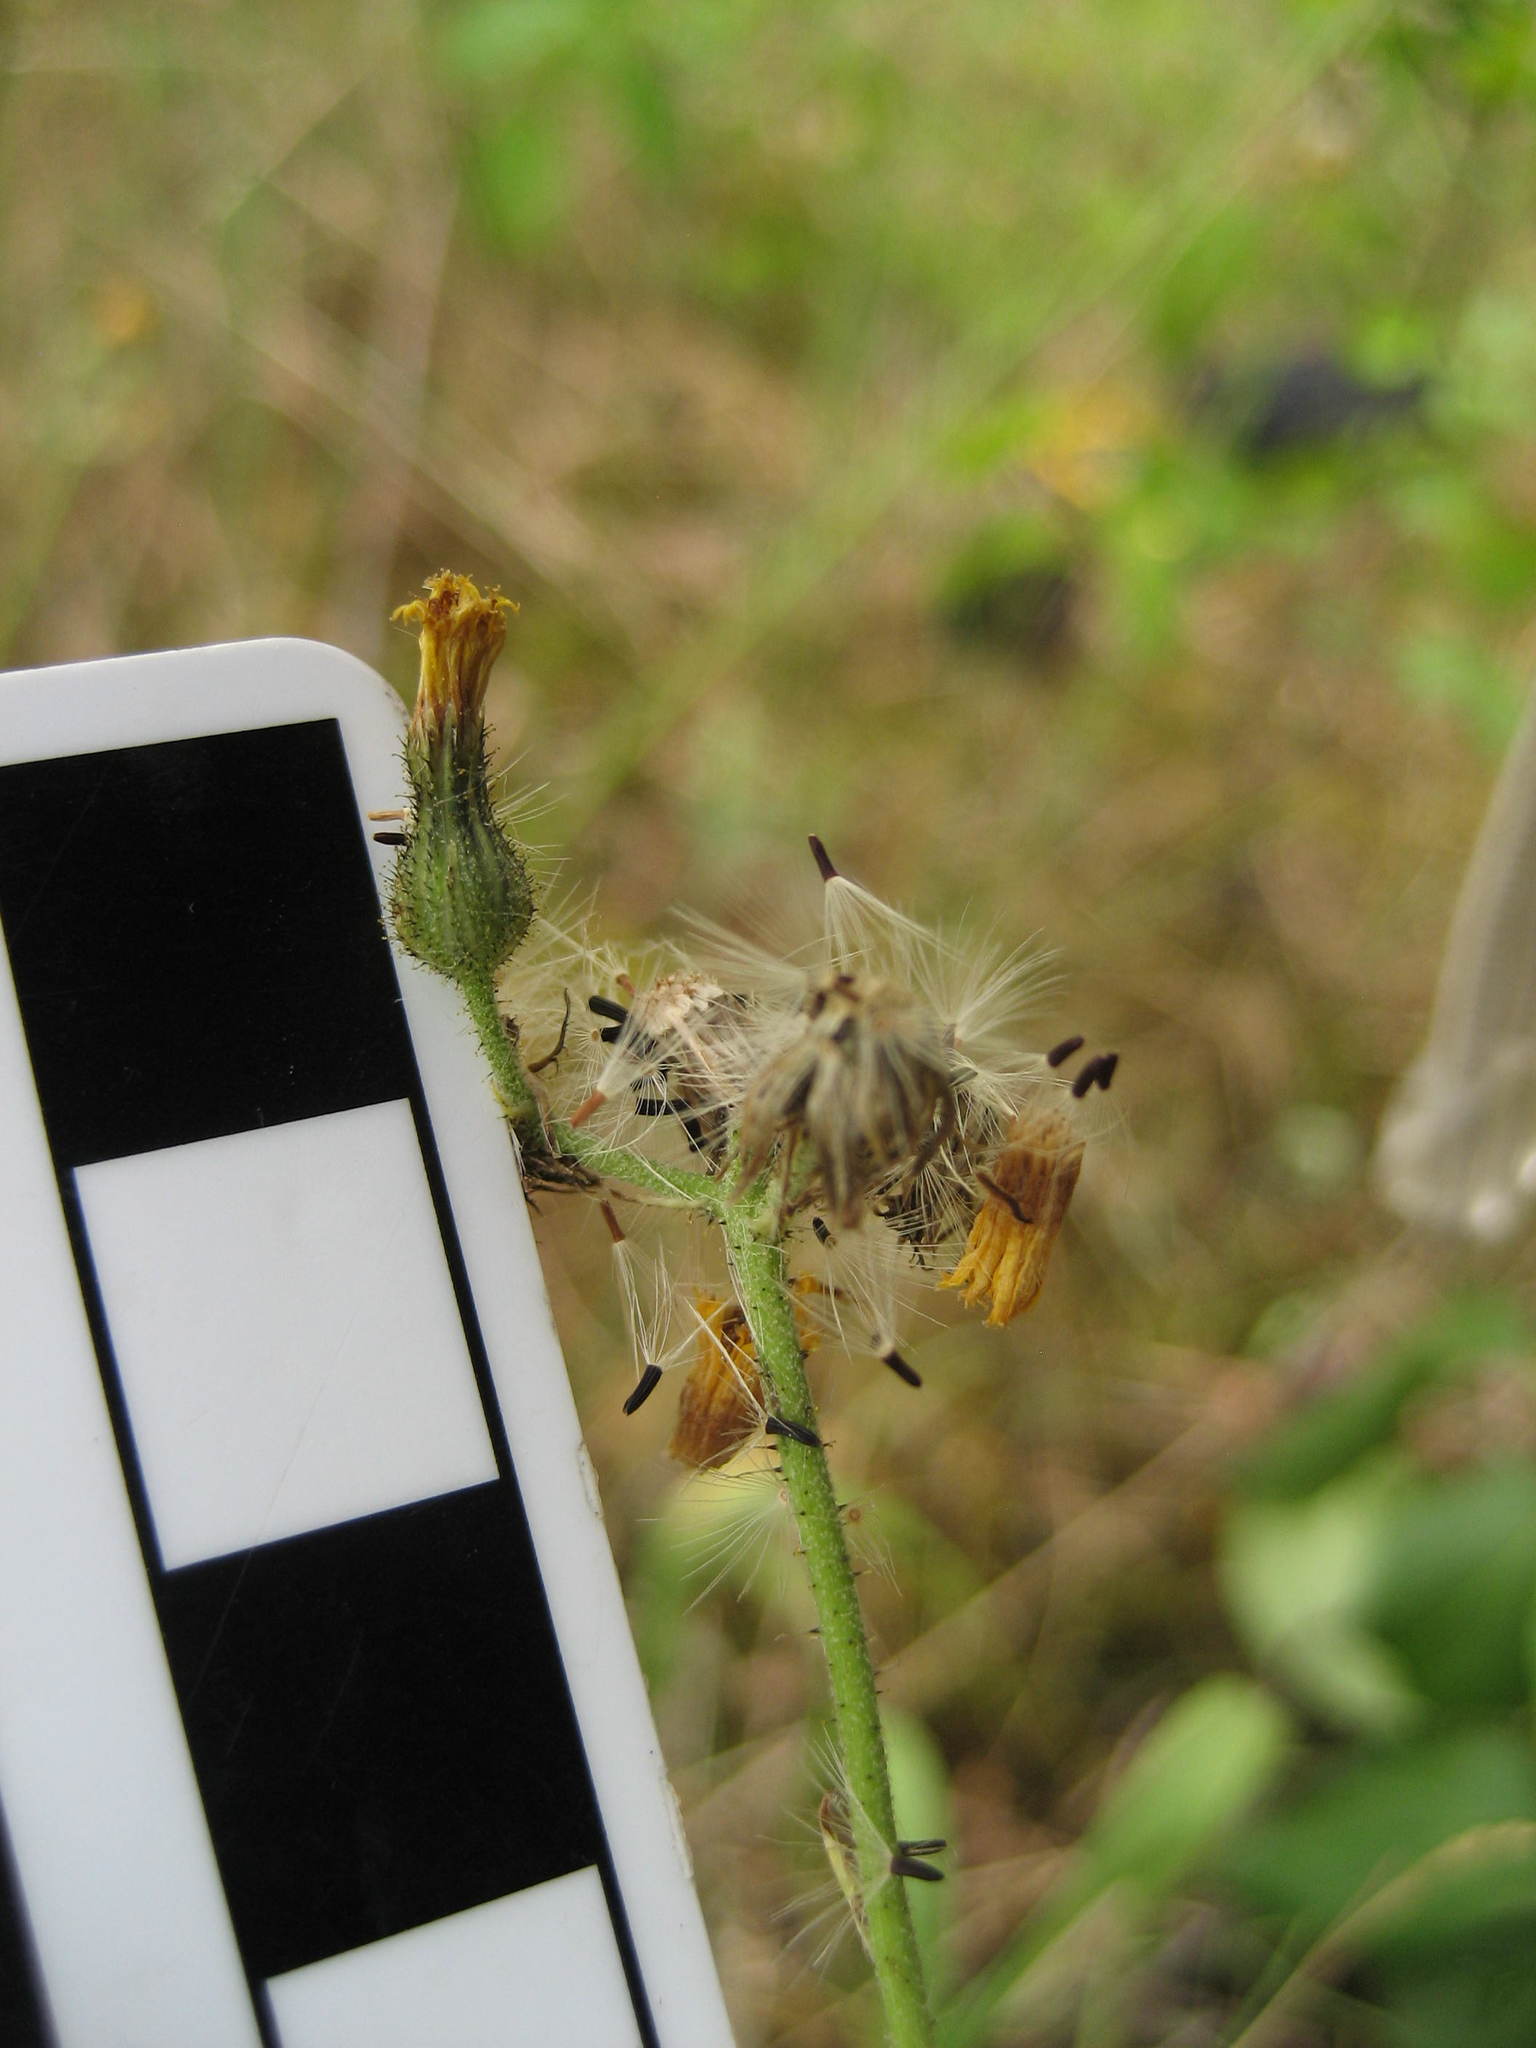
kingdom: Plantae
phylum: Tracheophyta
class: Magnoliopsida
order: Asterales
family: Asteraceae
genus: Pilosella
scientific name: Pilosella piloselloides
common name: Glaucous king-devil
